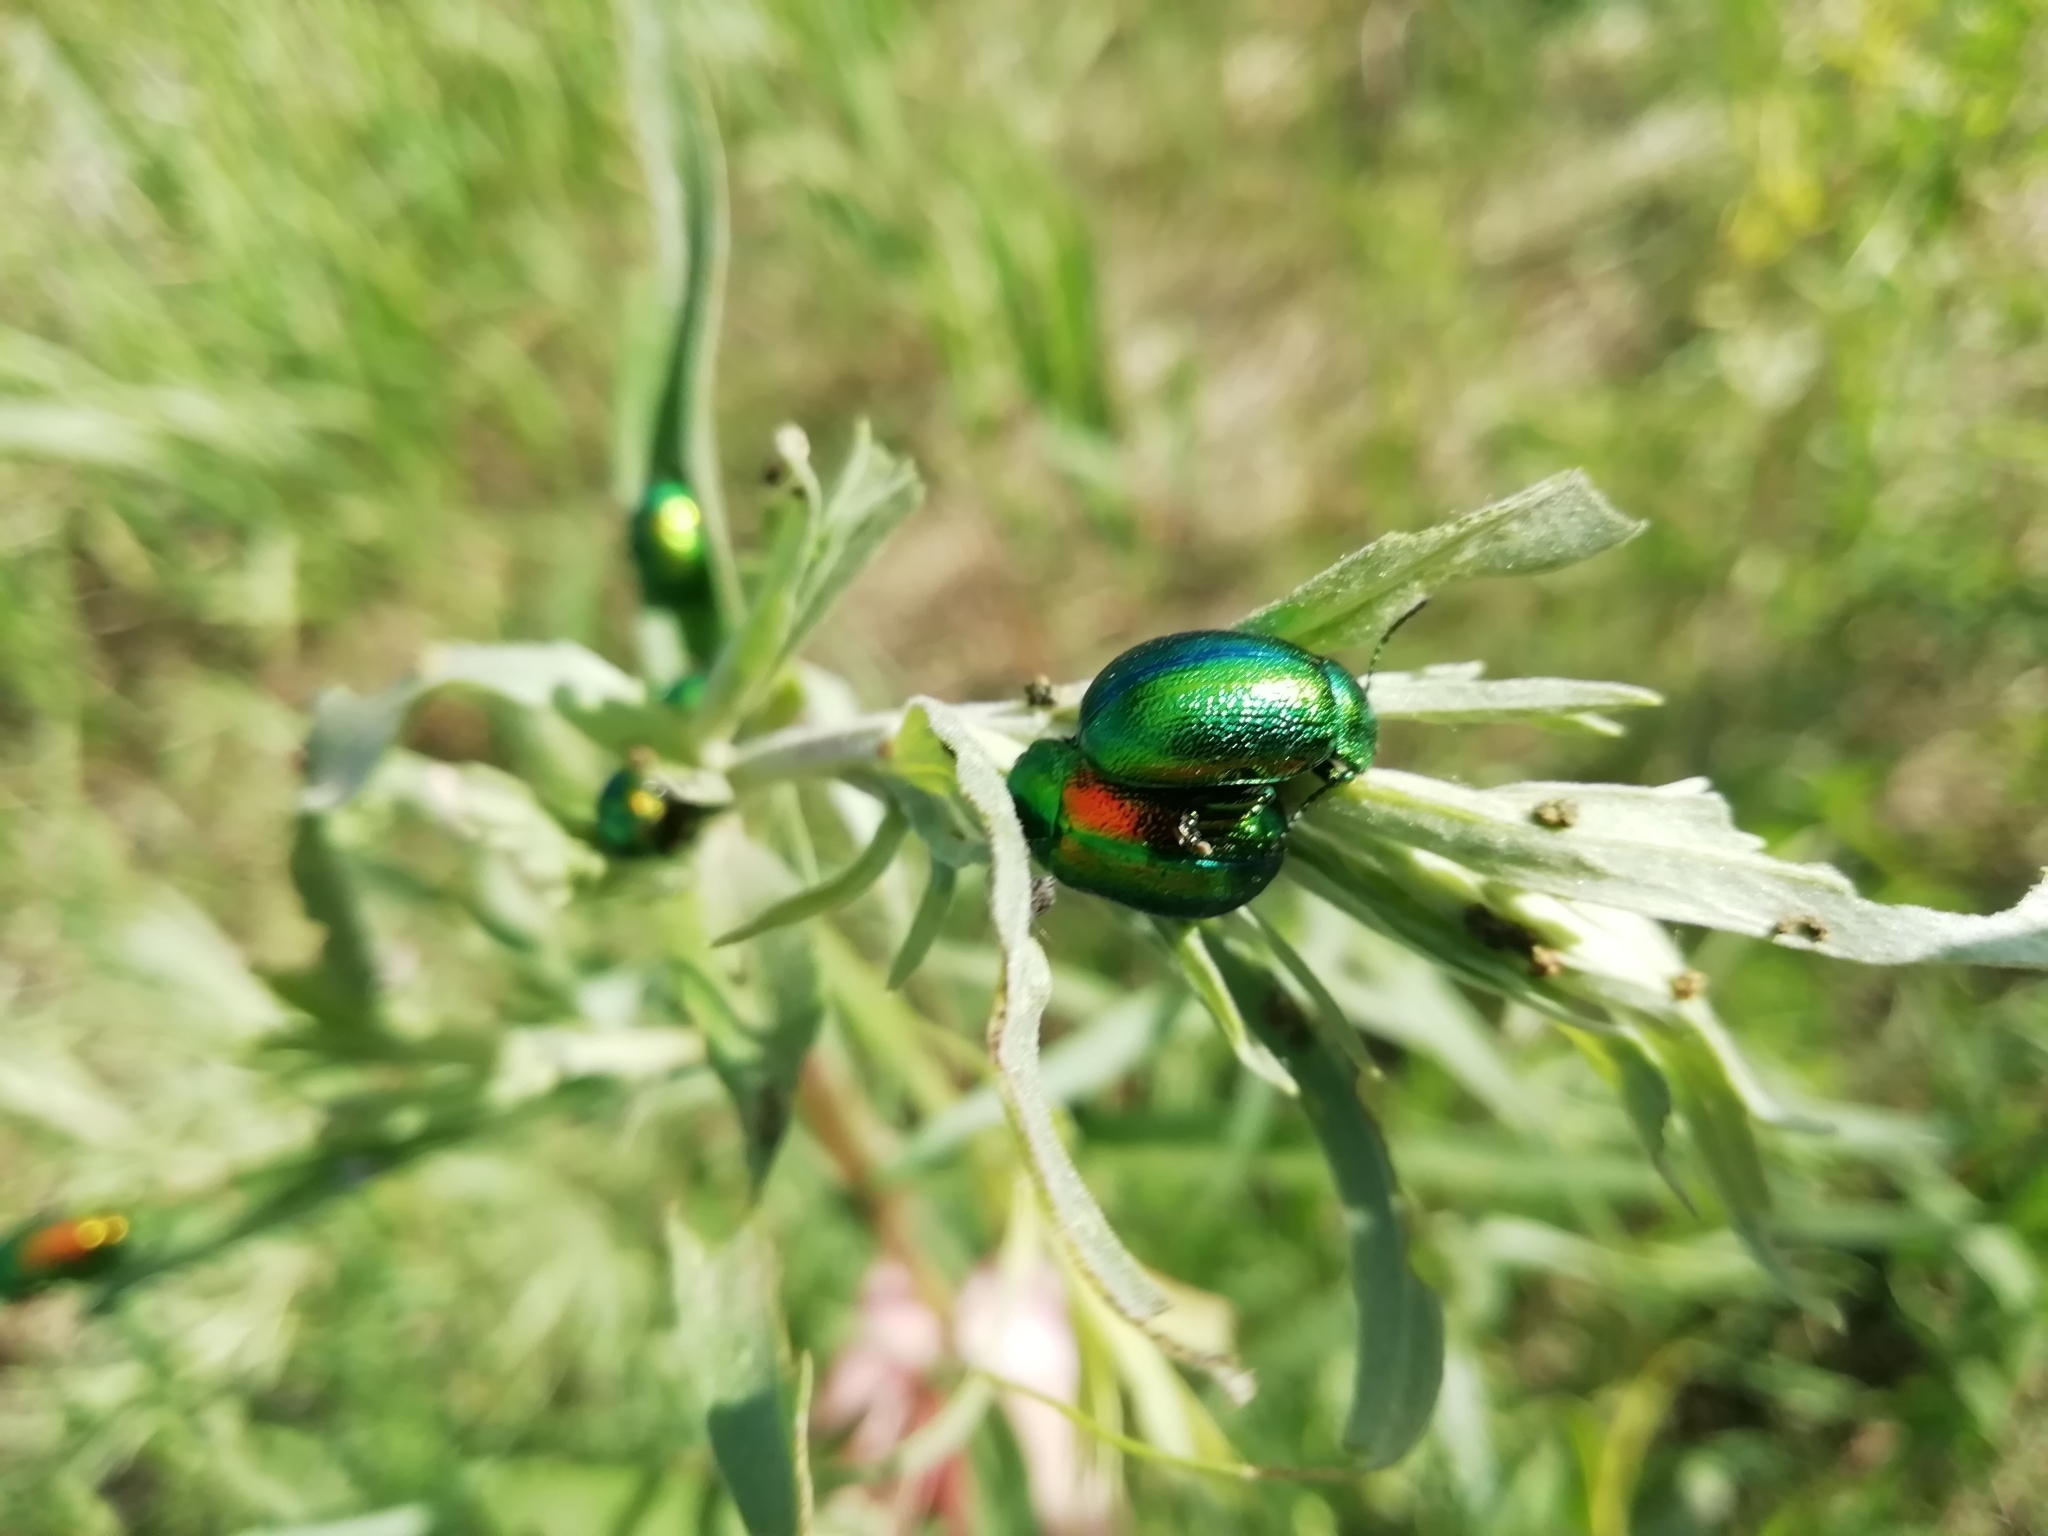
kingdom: Animalia
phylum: Arthropoda
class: Insecta
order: Coleoptera
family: Chrysomelidae
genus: Chrysolina
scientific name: Chrysolina graminis
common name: Tansey beetle
